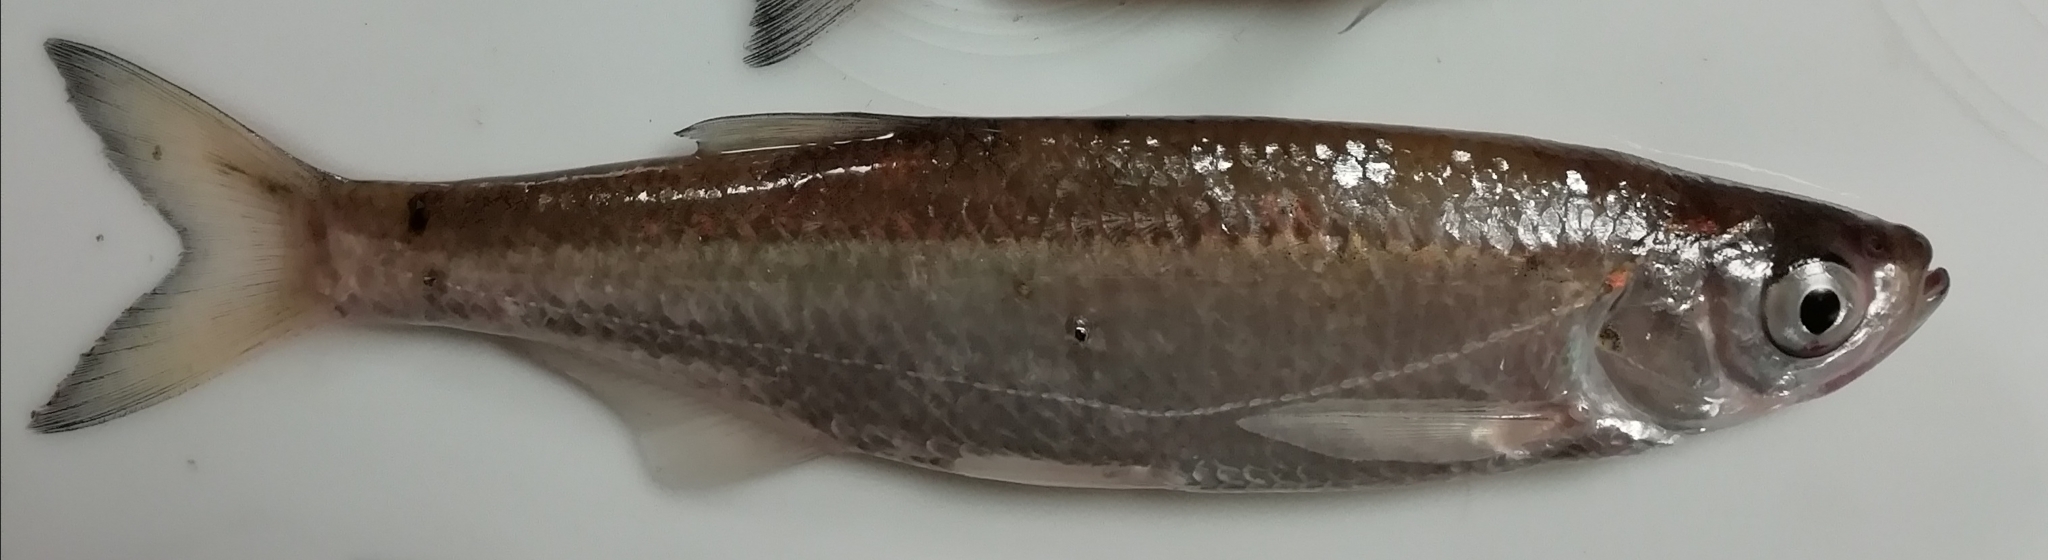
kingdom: Animalia
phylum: Chordata
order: Cypriniformes
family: Cyprinidae
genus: Alburnus
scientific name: Alburnus alburnus
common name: Bleak
